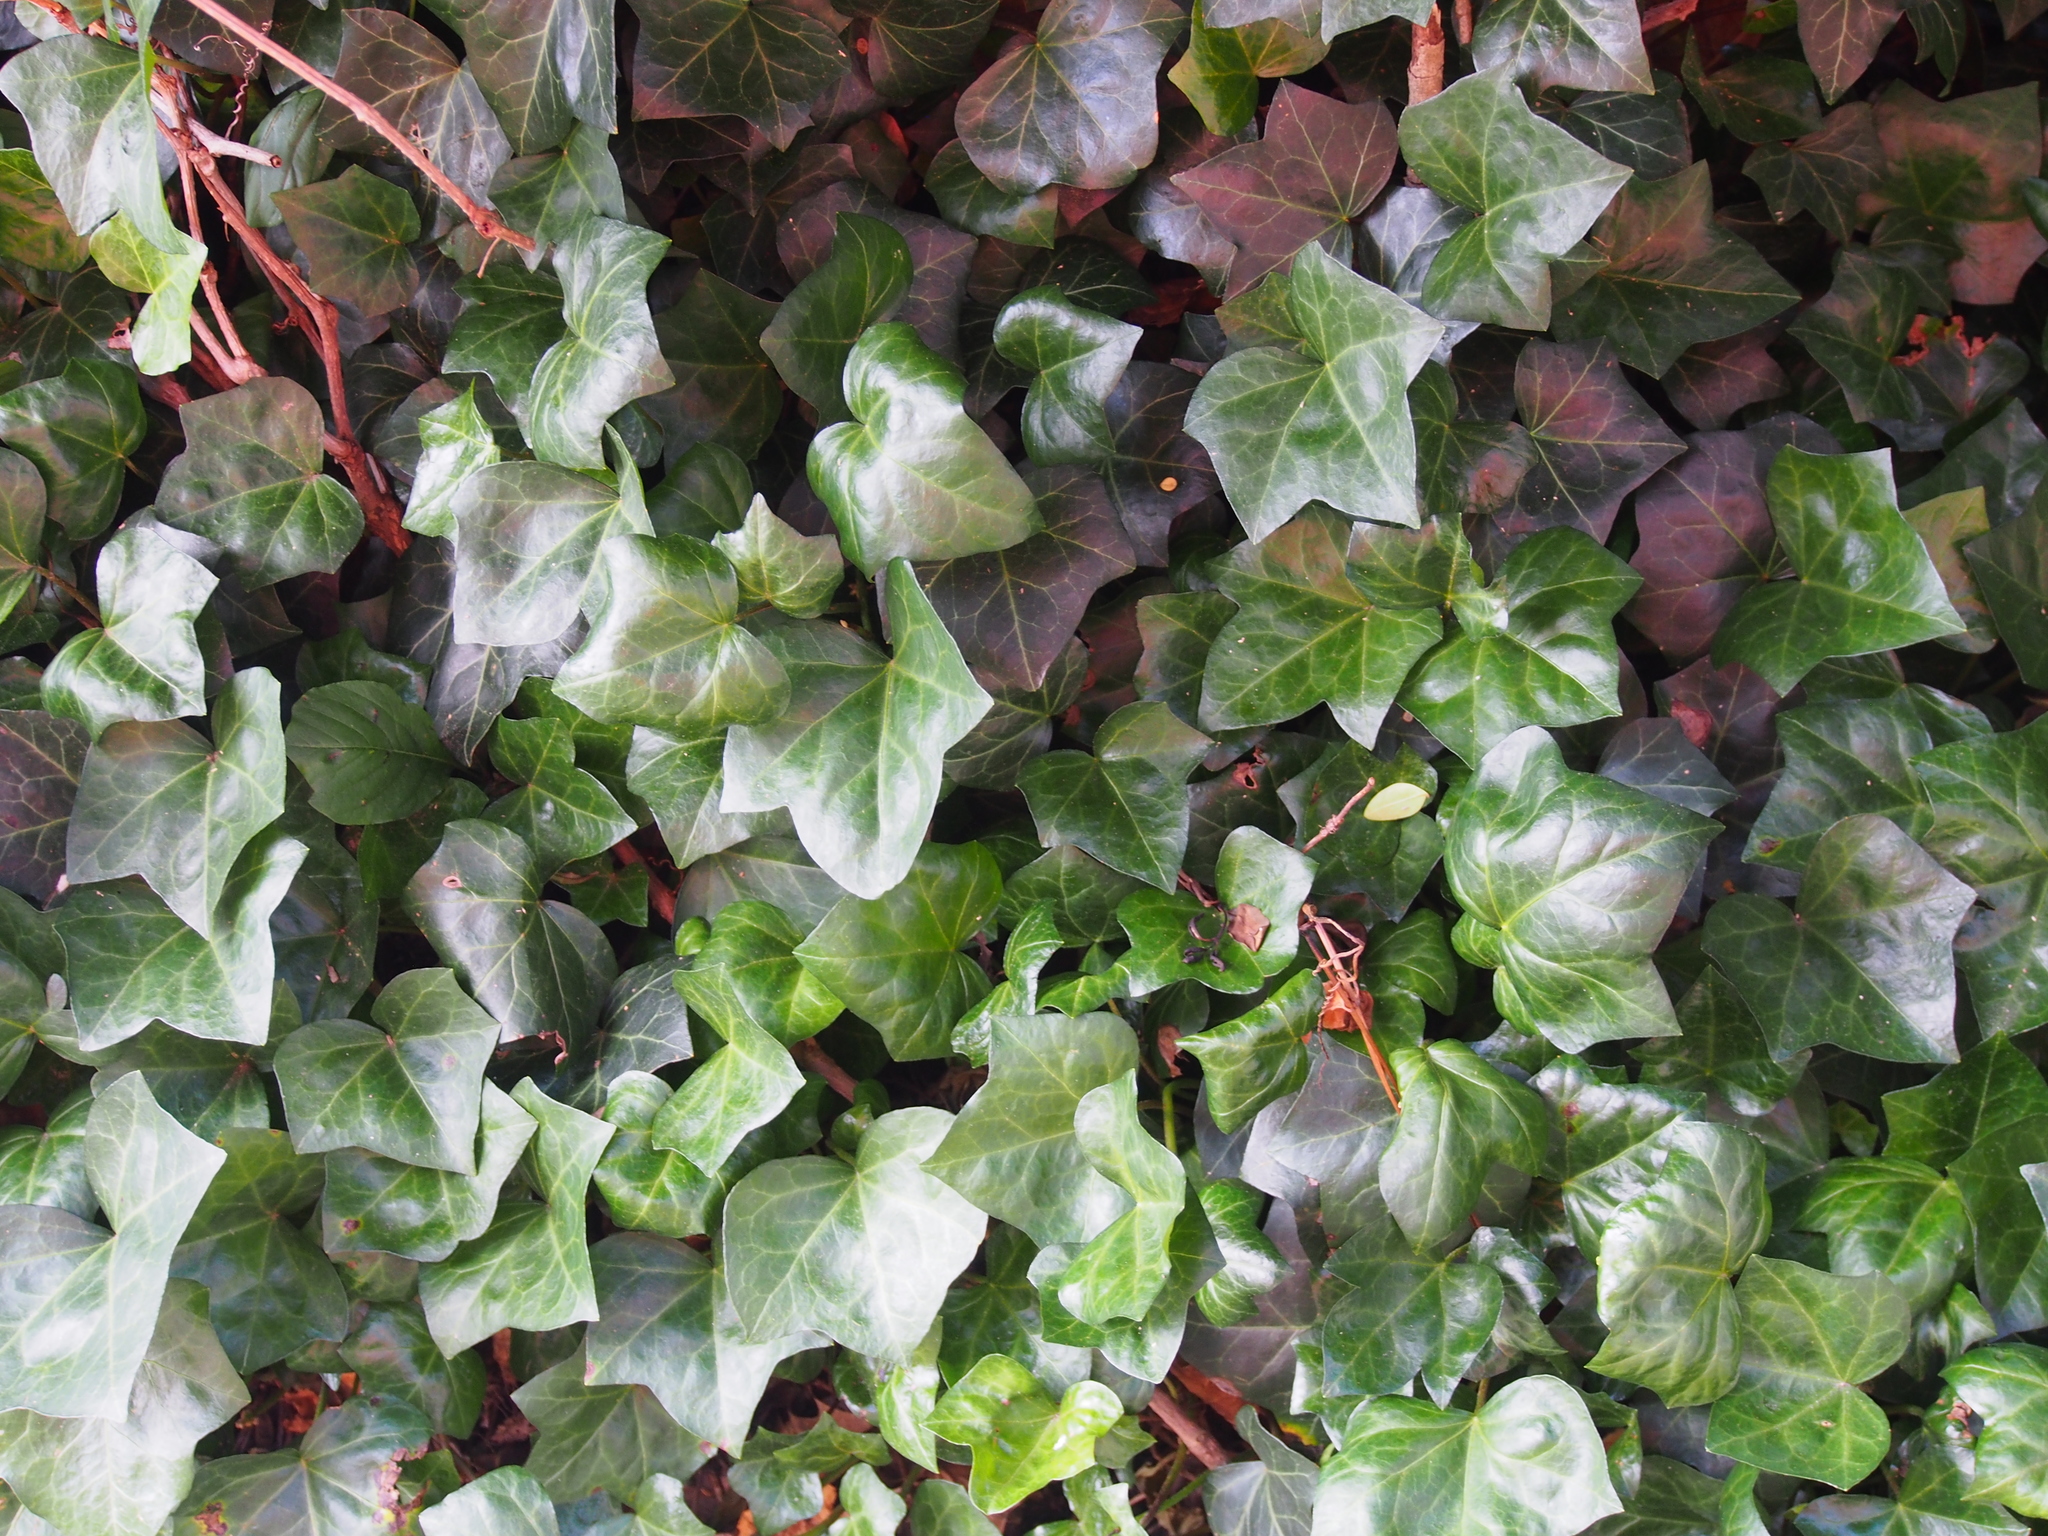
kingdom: Plantae
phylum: Tracheophyta
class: Magnoliopsida
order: Apiales
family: Araliaceae
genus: Hedera
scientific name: Hedera helix
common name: Ivy
